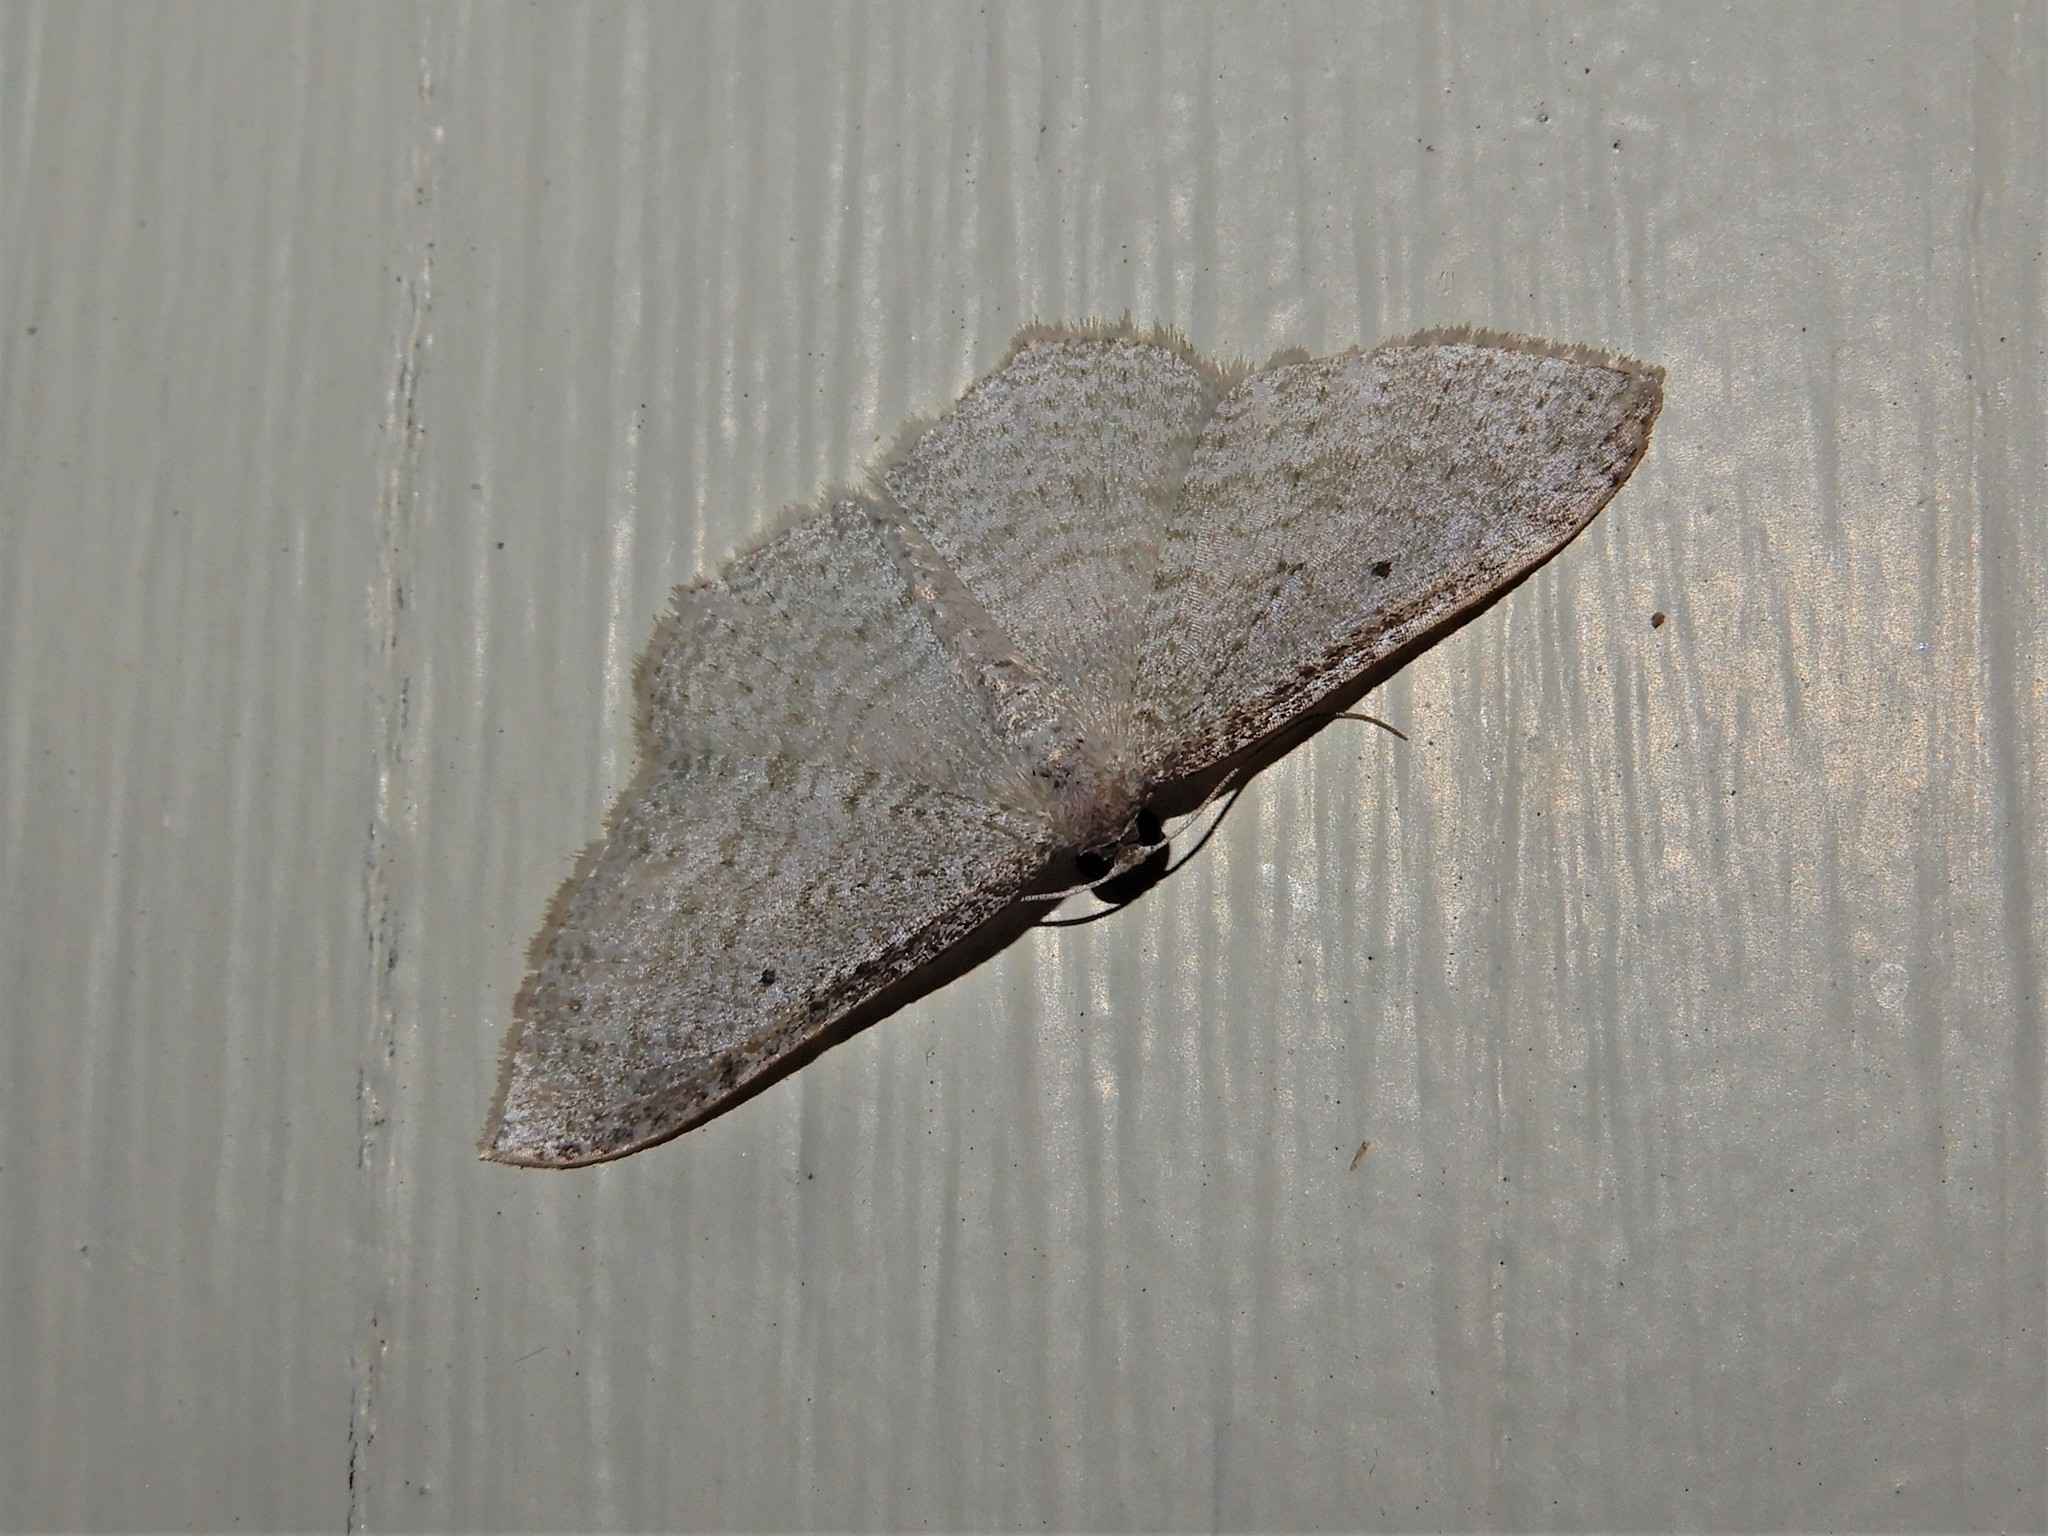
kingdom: Animalia
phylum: Arthropoda
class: Insecta
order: Lepidoptera
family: Geometridae
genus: Poecilasthena
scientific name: Poecilasthena pulchraria
